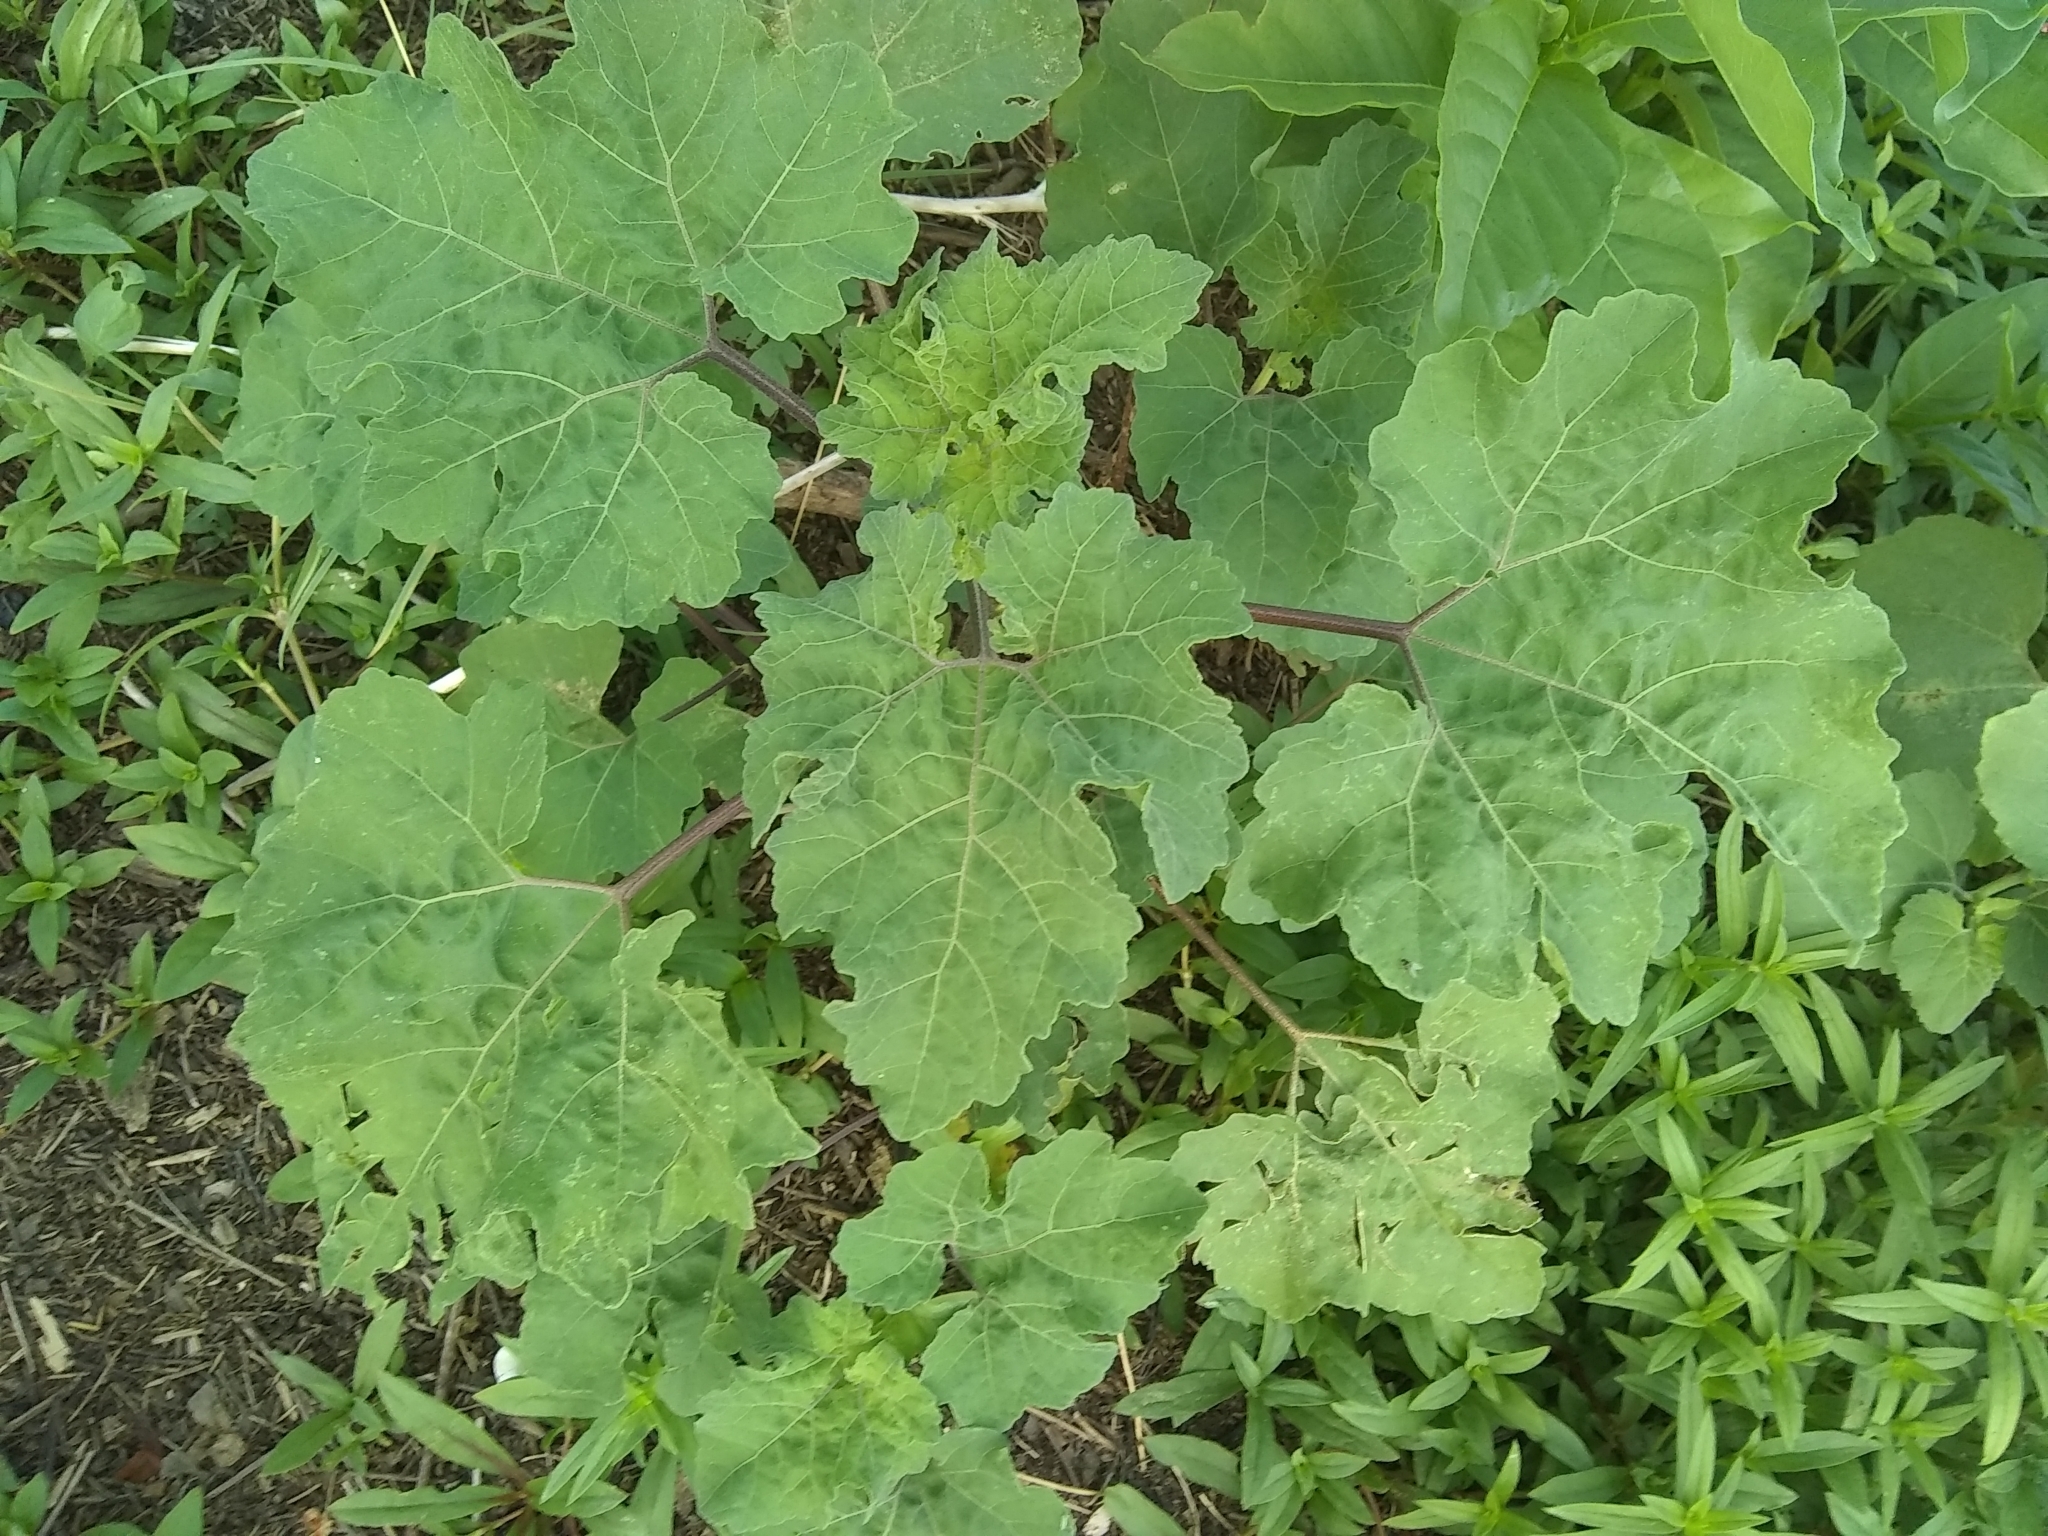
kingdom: Plantae
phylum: Tracheophyta
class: Magnoliopsida
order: Asterales
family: Asteraceae
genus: Xanthium
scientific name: Xanthium strumarium
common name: Rough cocklebur
